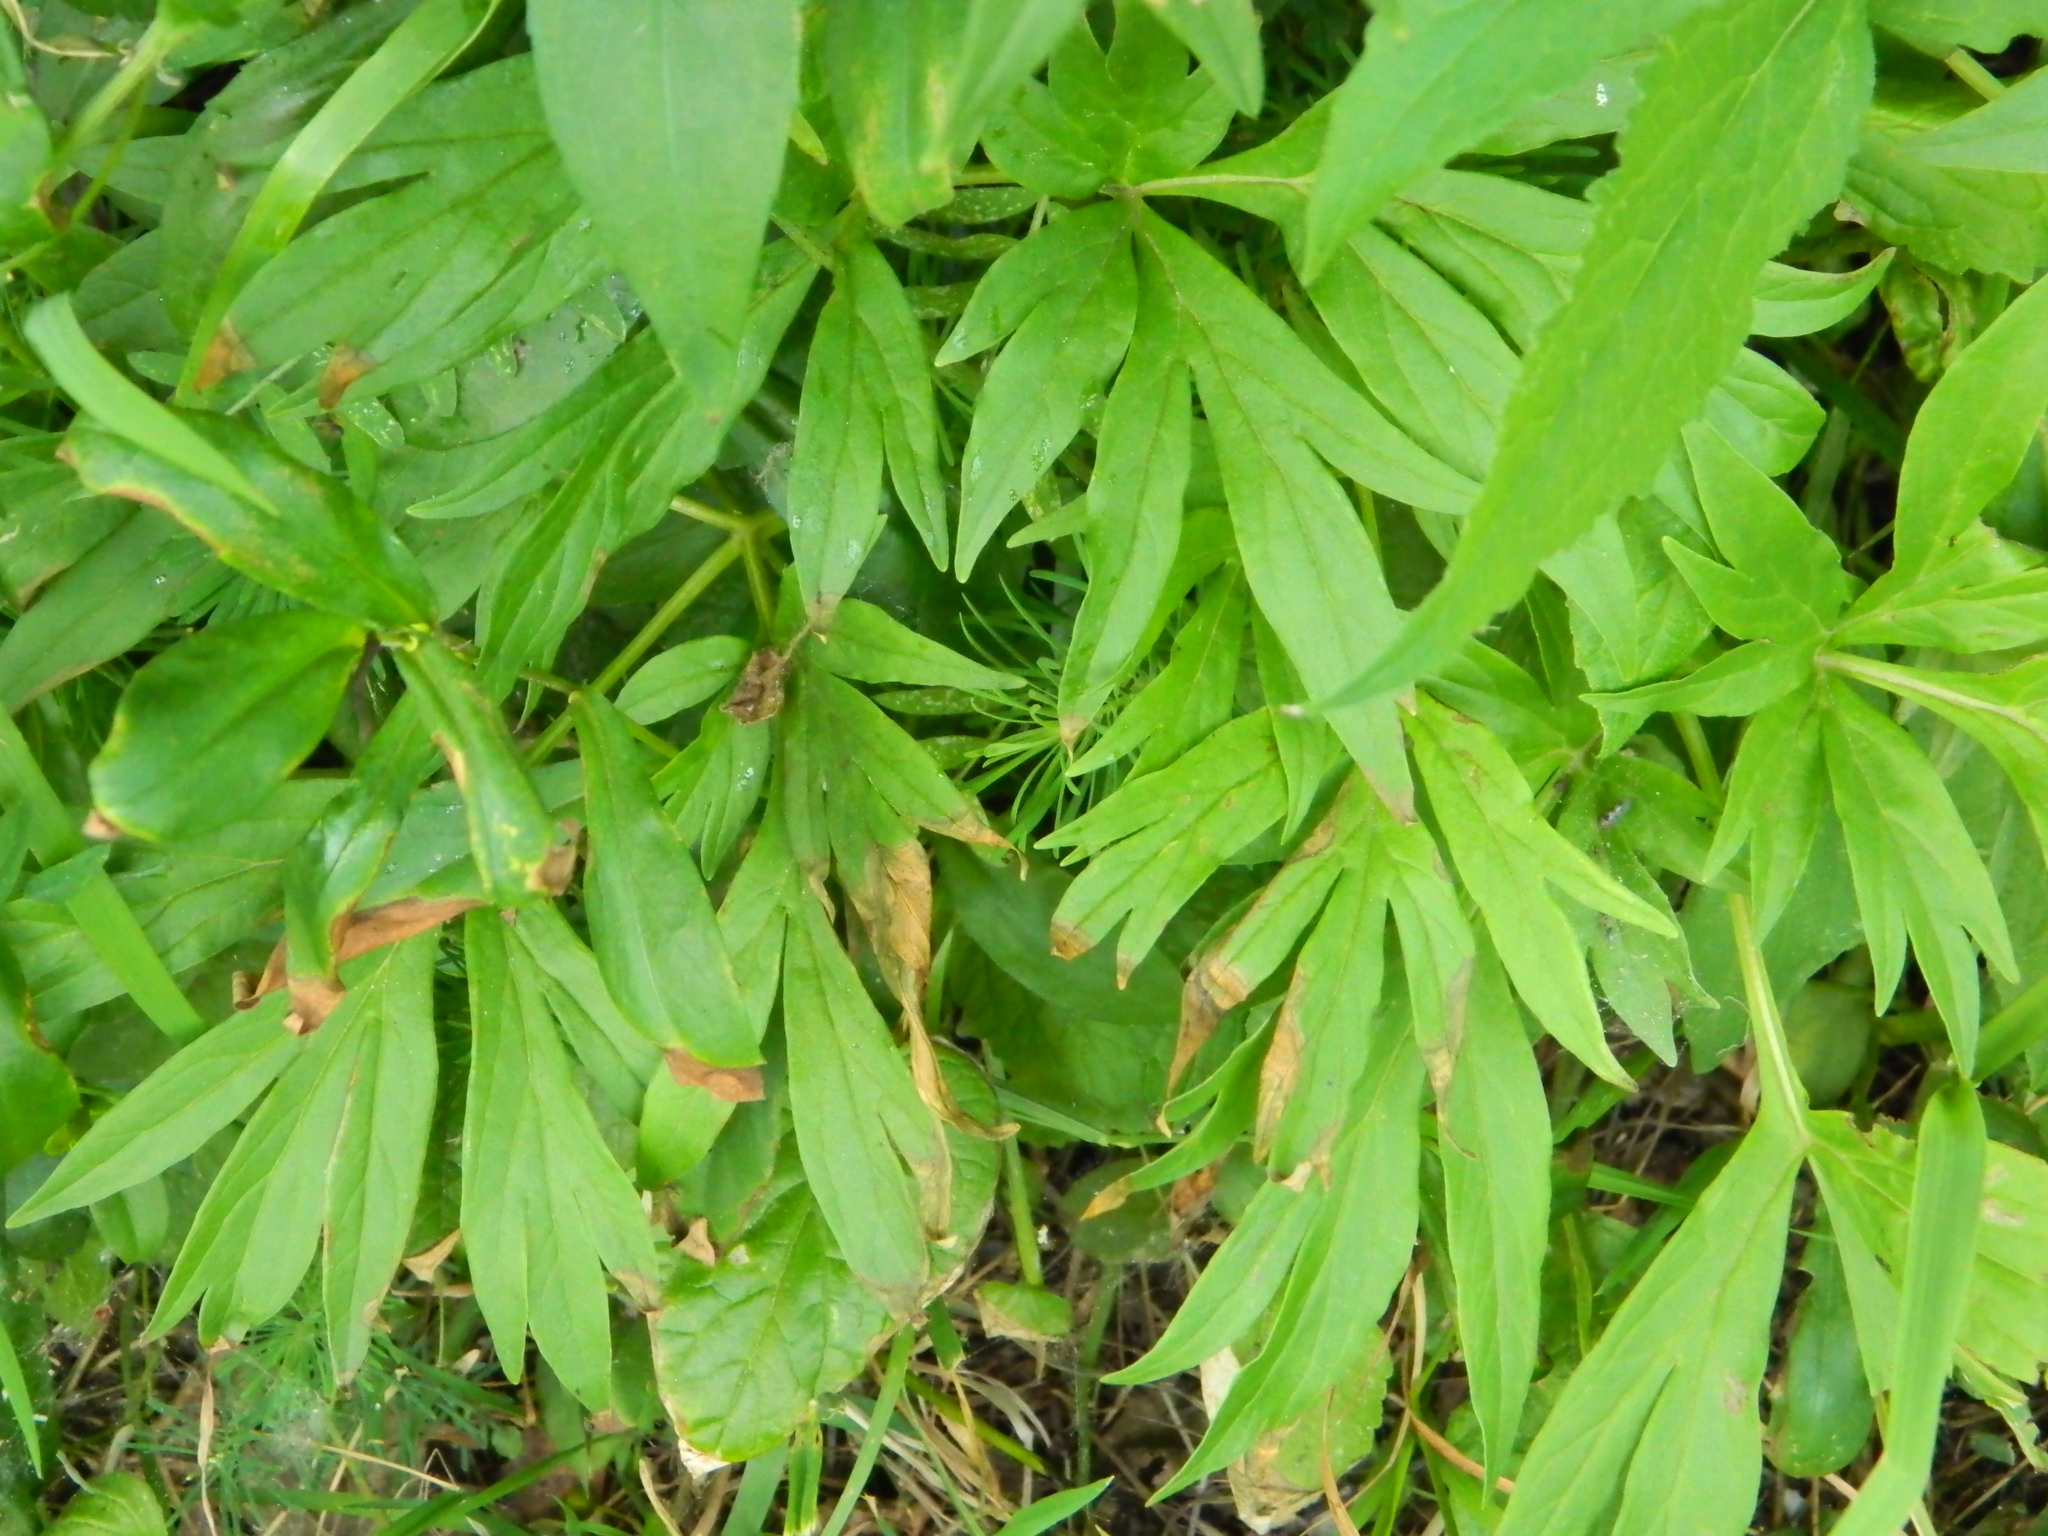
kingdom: Plantae
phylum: Tracheophyta
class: Magnoliopsida
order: Saxifragales
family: Paeoniaceae
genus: Paeonia
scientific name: Paeonia anomala
